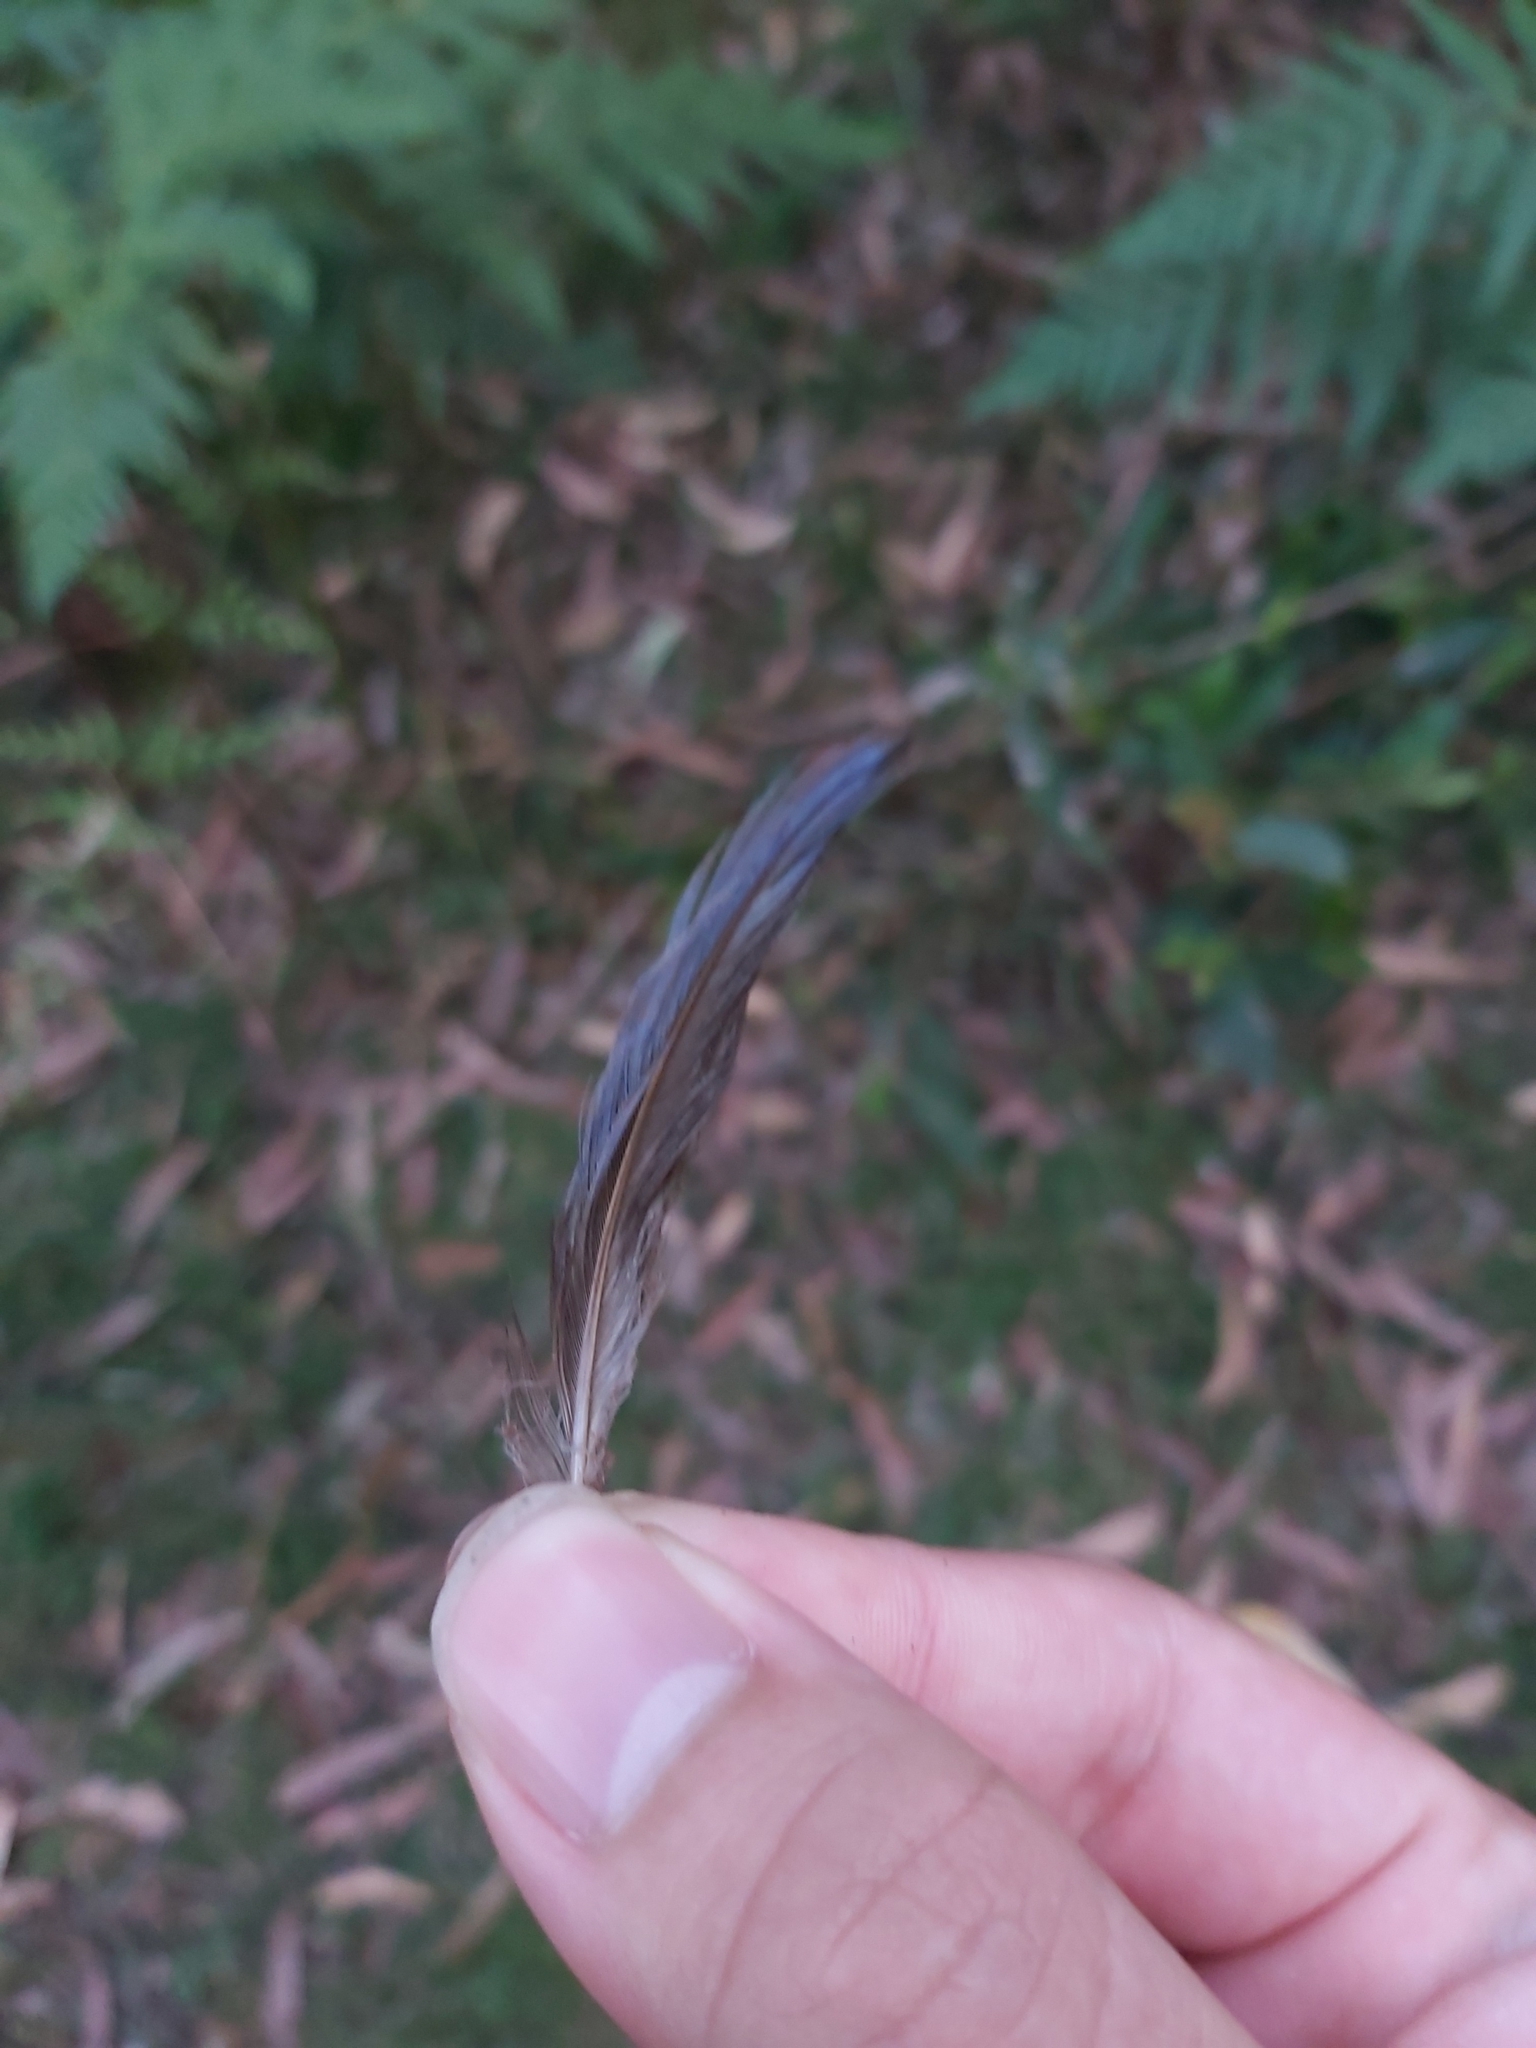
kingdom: Animalia
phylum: Chordata
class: Aves
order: Psittaciformes
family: Psittacidae
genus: Platycercus
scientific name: Platycercus elegans
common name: Crimson rosella
